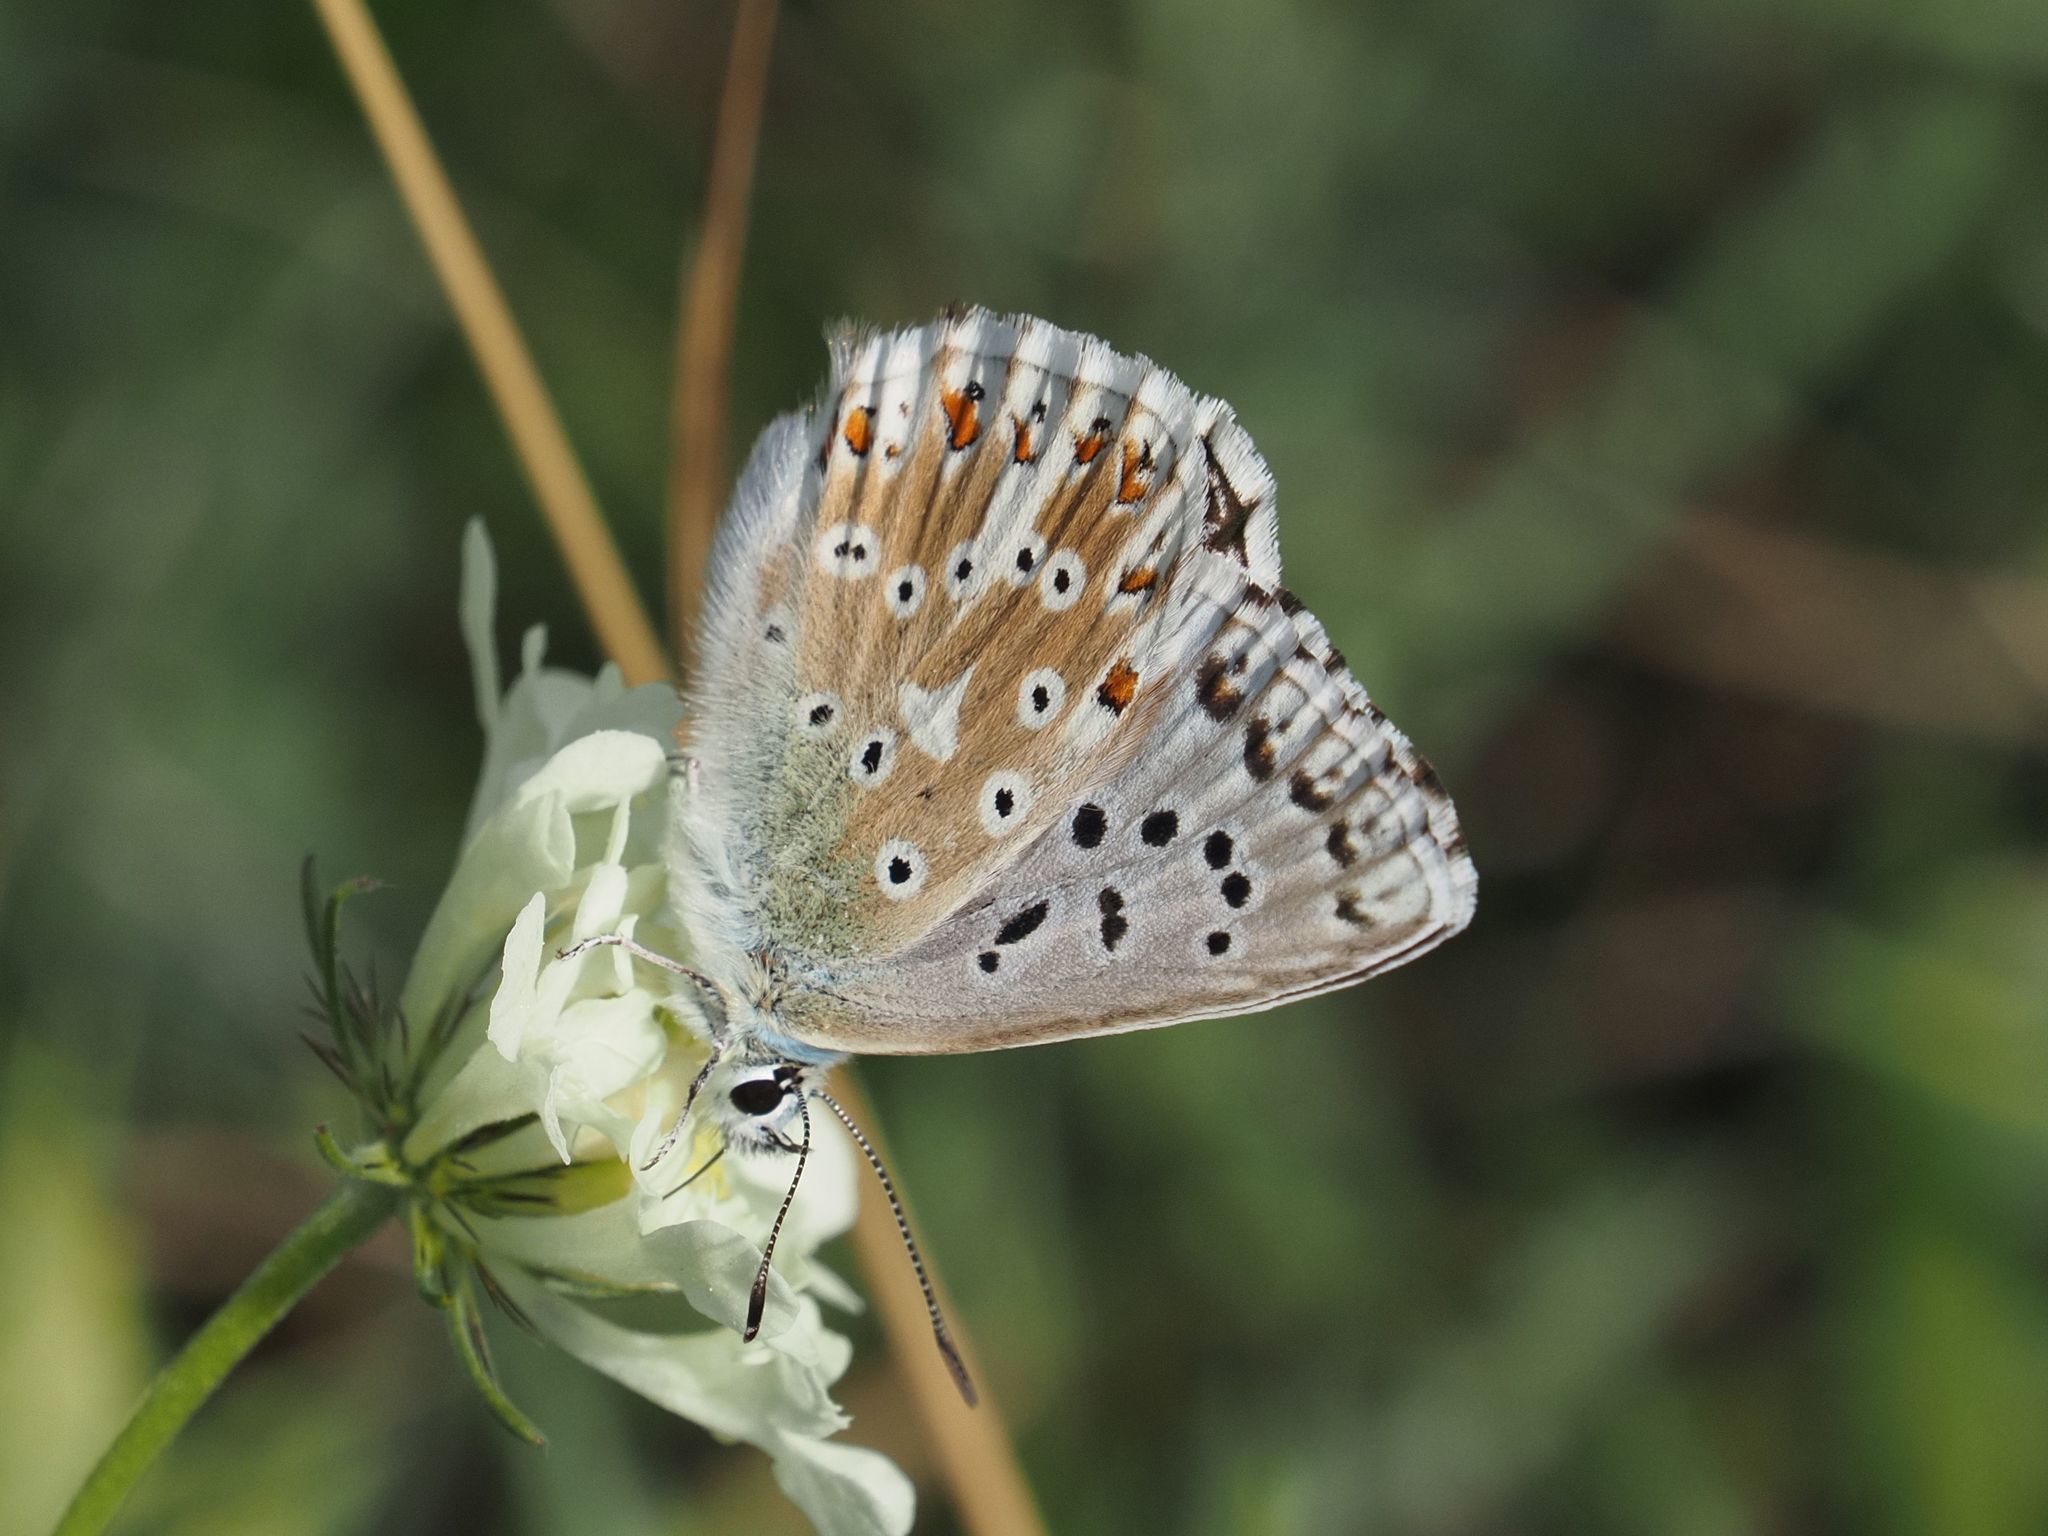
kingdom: Animalia
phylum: Arthropoda
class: Insecta
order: Lepidoptera
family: Lycaenidae
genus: Lysandra
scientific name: Lysandra coridon
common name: Chalkhill blue
